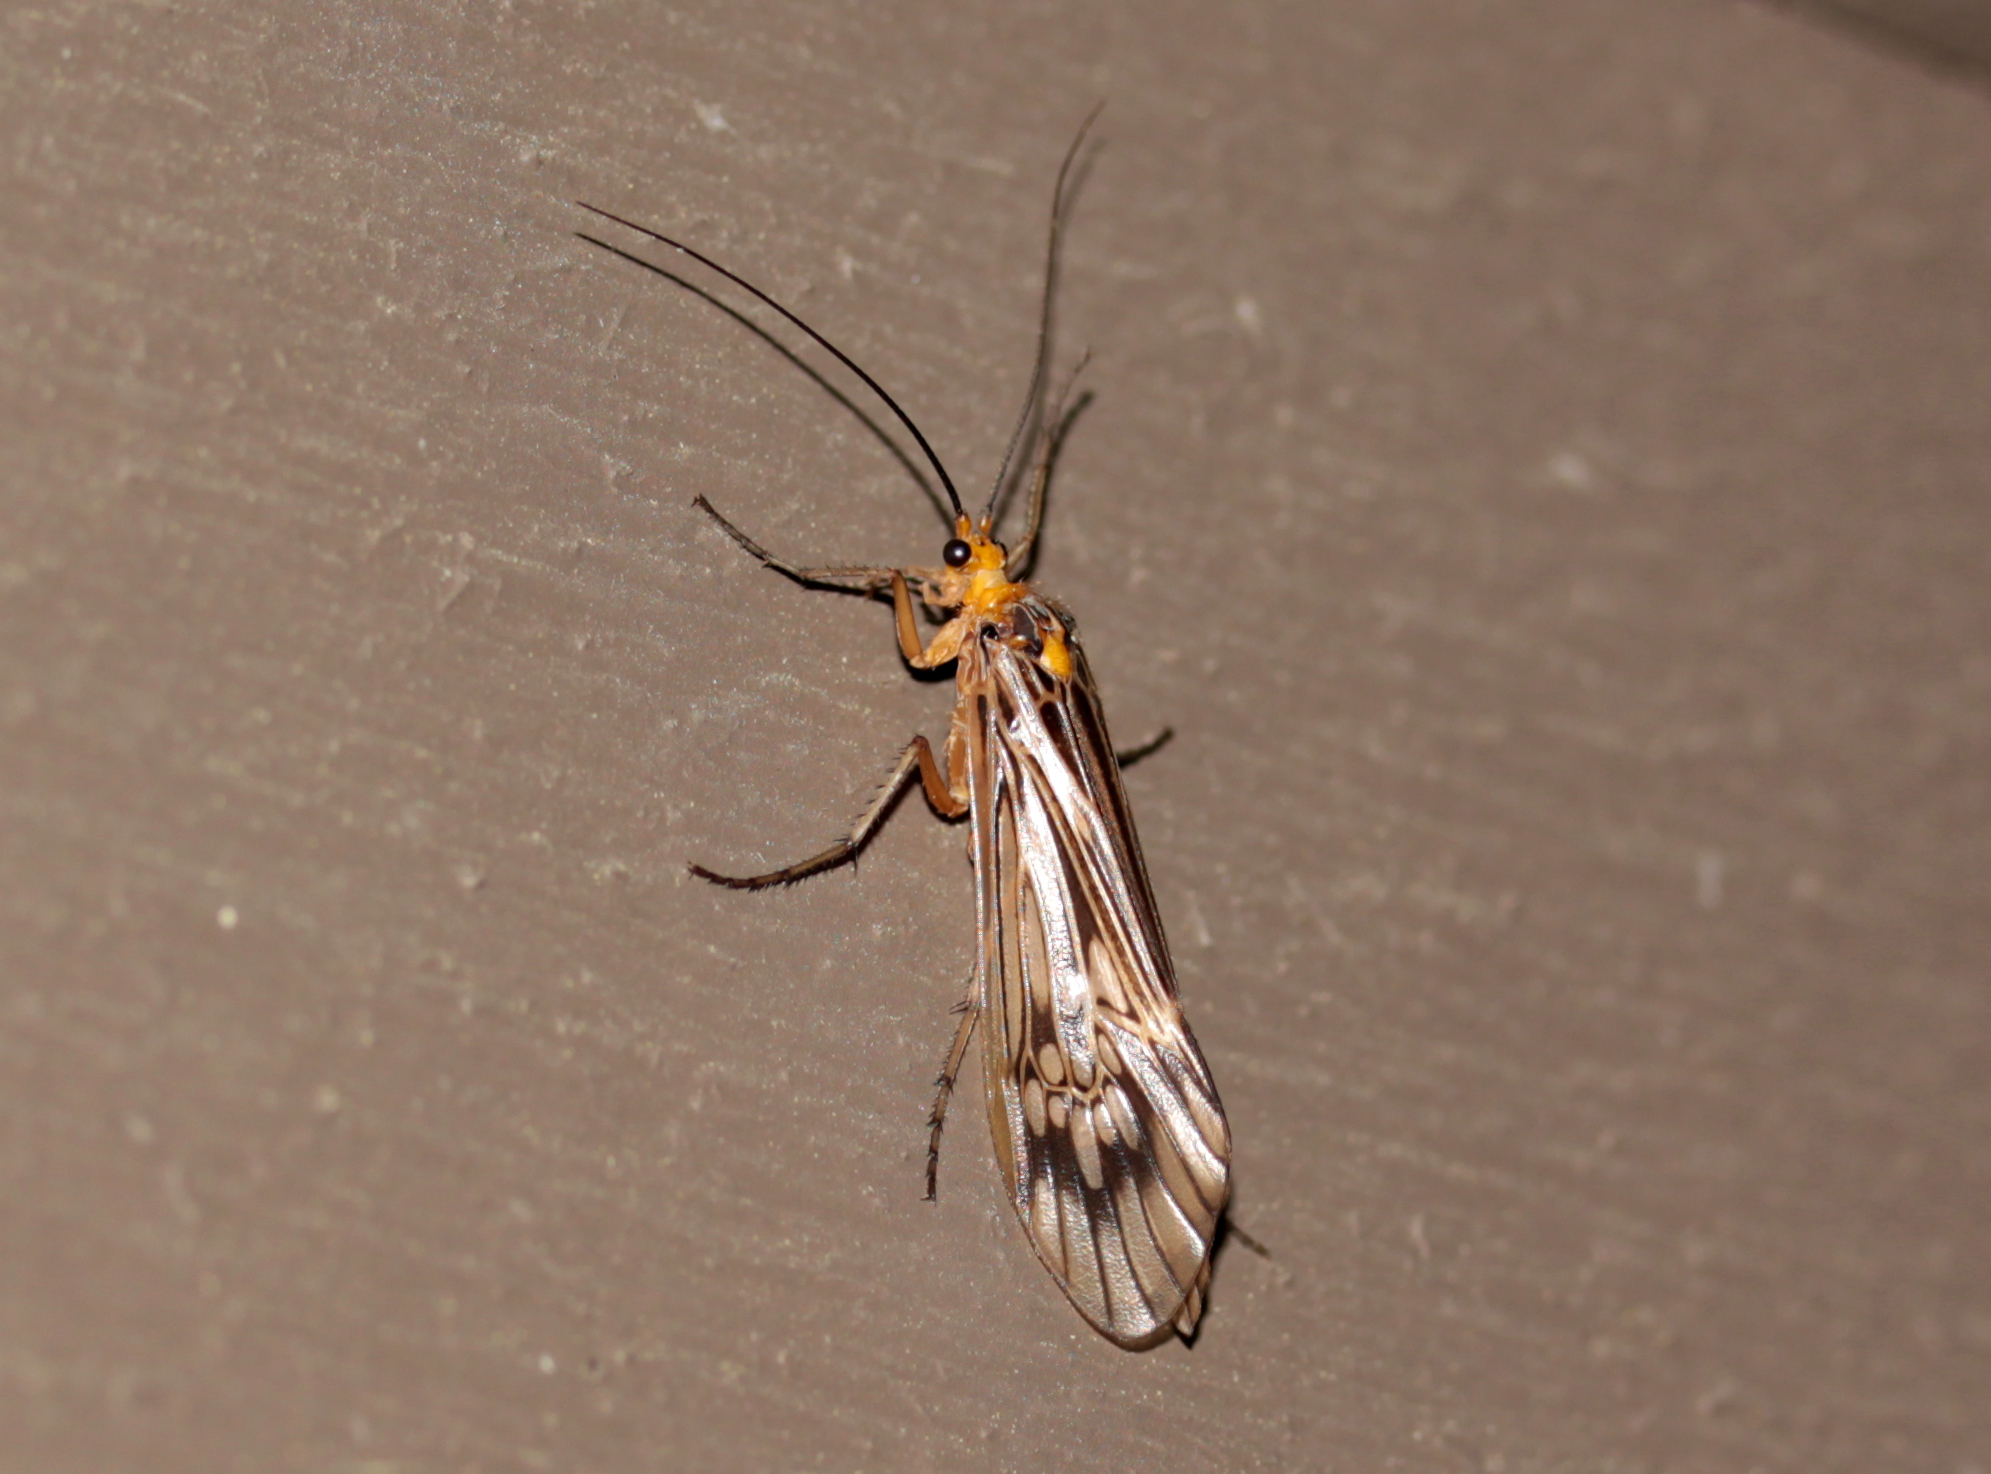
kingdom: Animalia
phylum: Arthropoda
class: Insecta
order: Trichoptera
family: Limnephilidae
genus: Hydatophylax
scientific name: Hydatophylax argus
